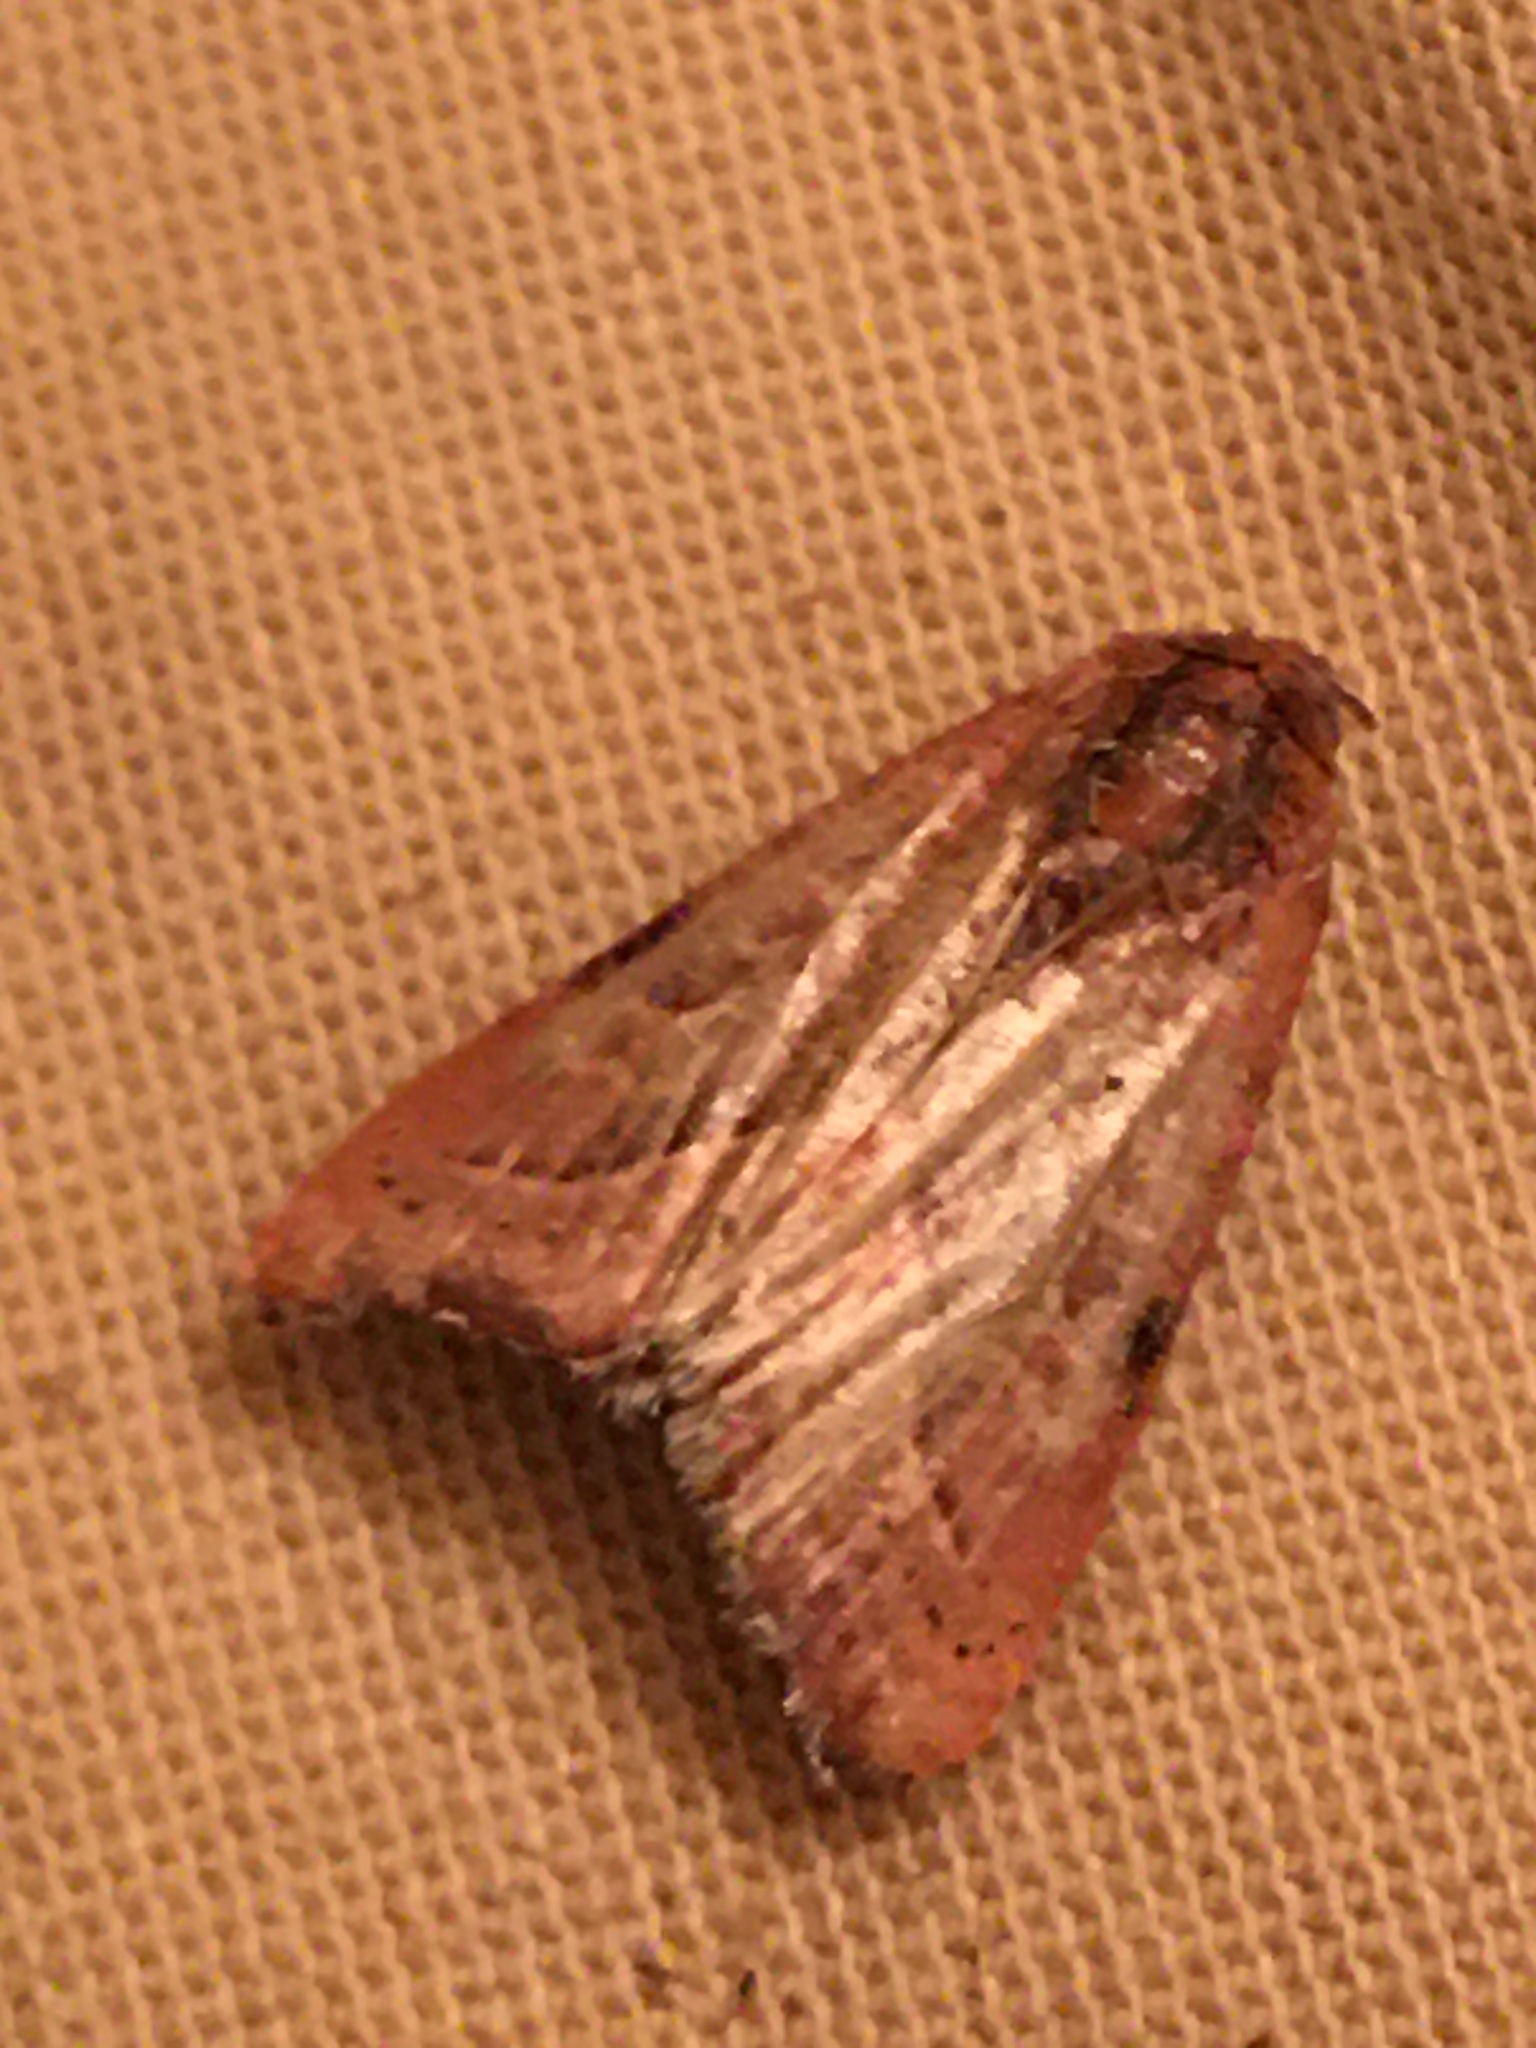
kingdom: Animalia
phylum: Arthropoda
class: Insecta
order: Lepidoptera
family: Noctuidae
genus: Galgula
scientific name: Galgula partita
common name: Wedgeling
